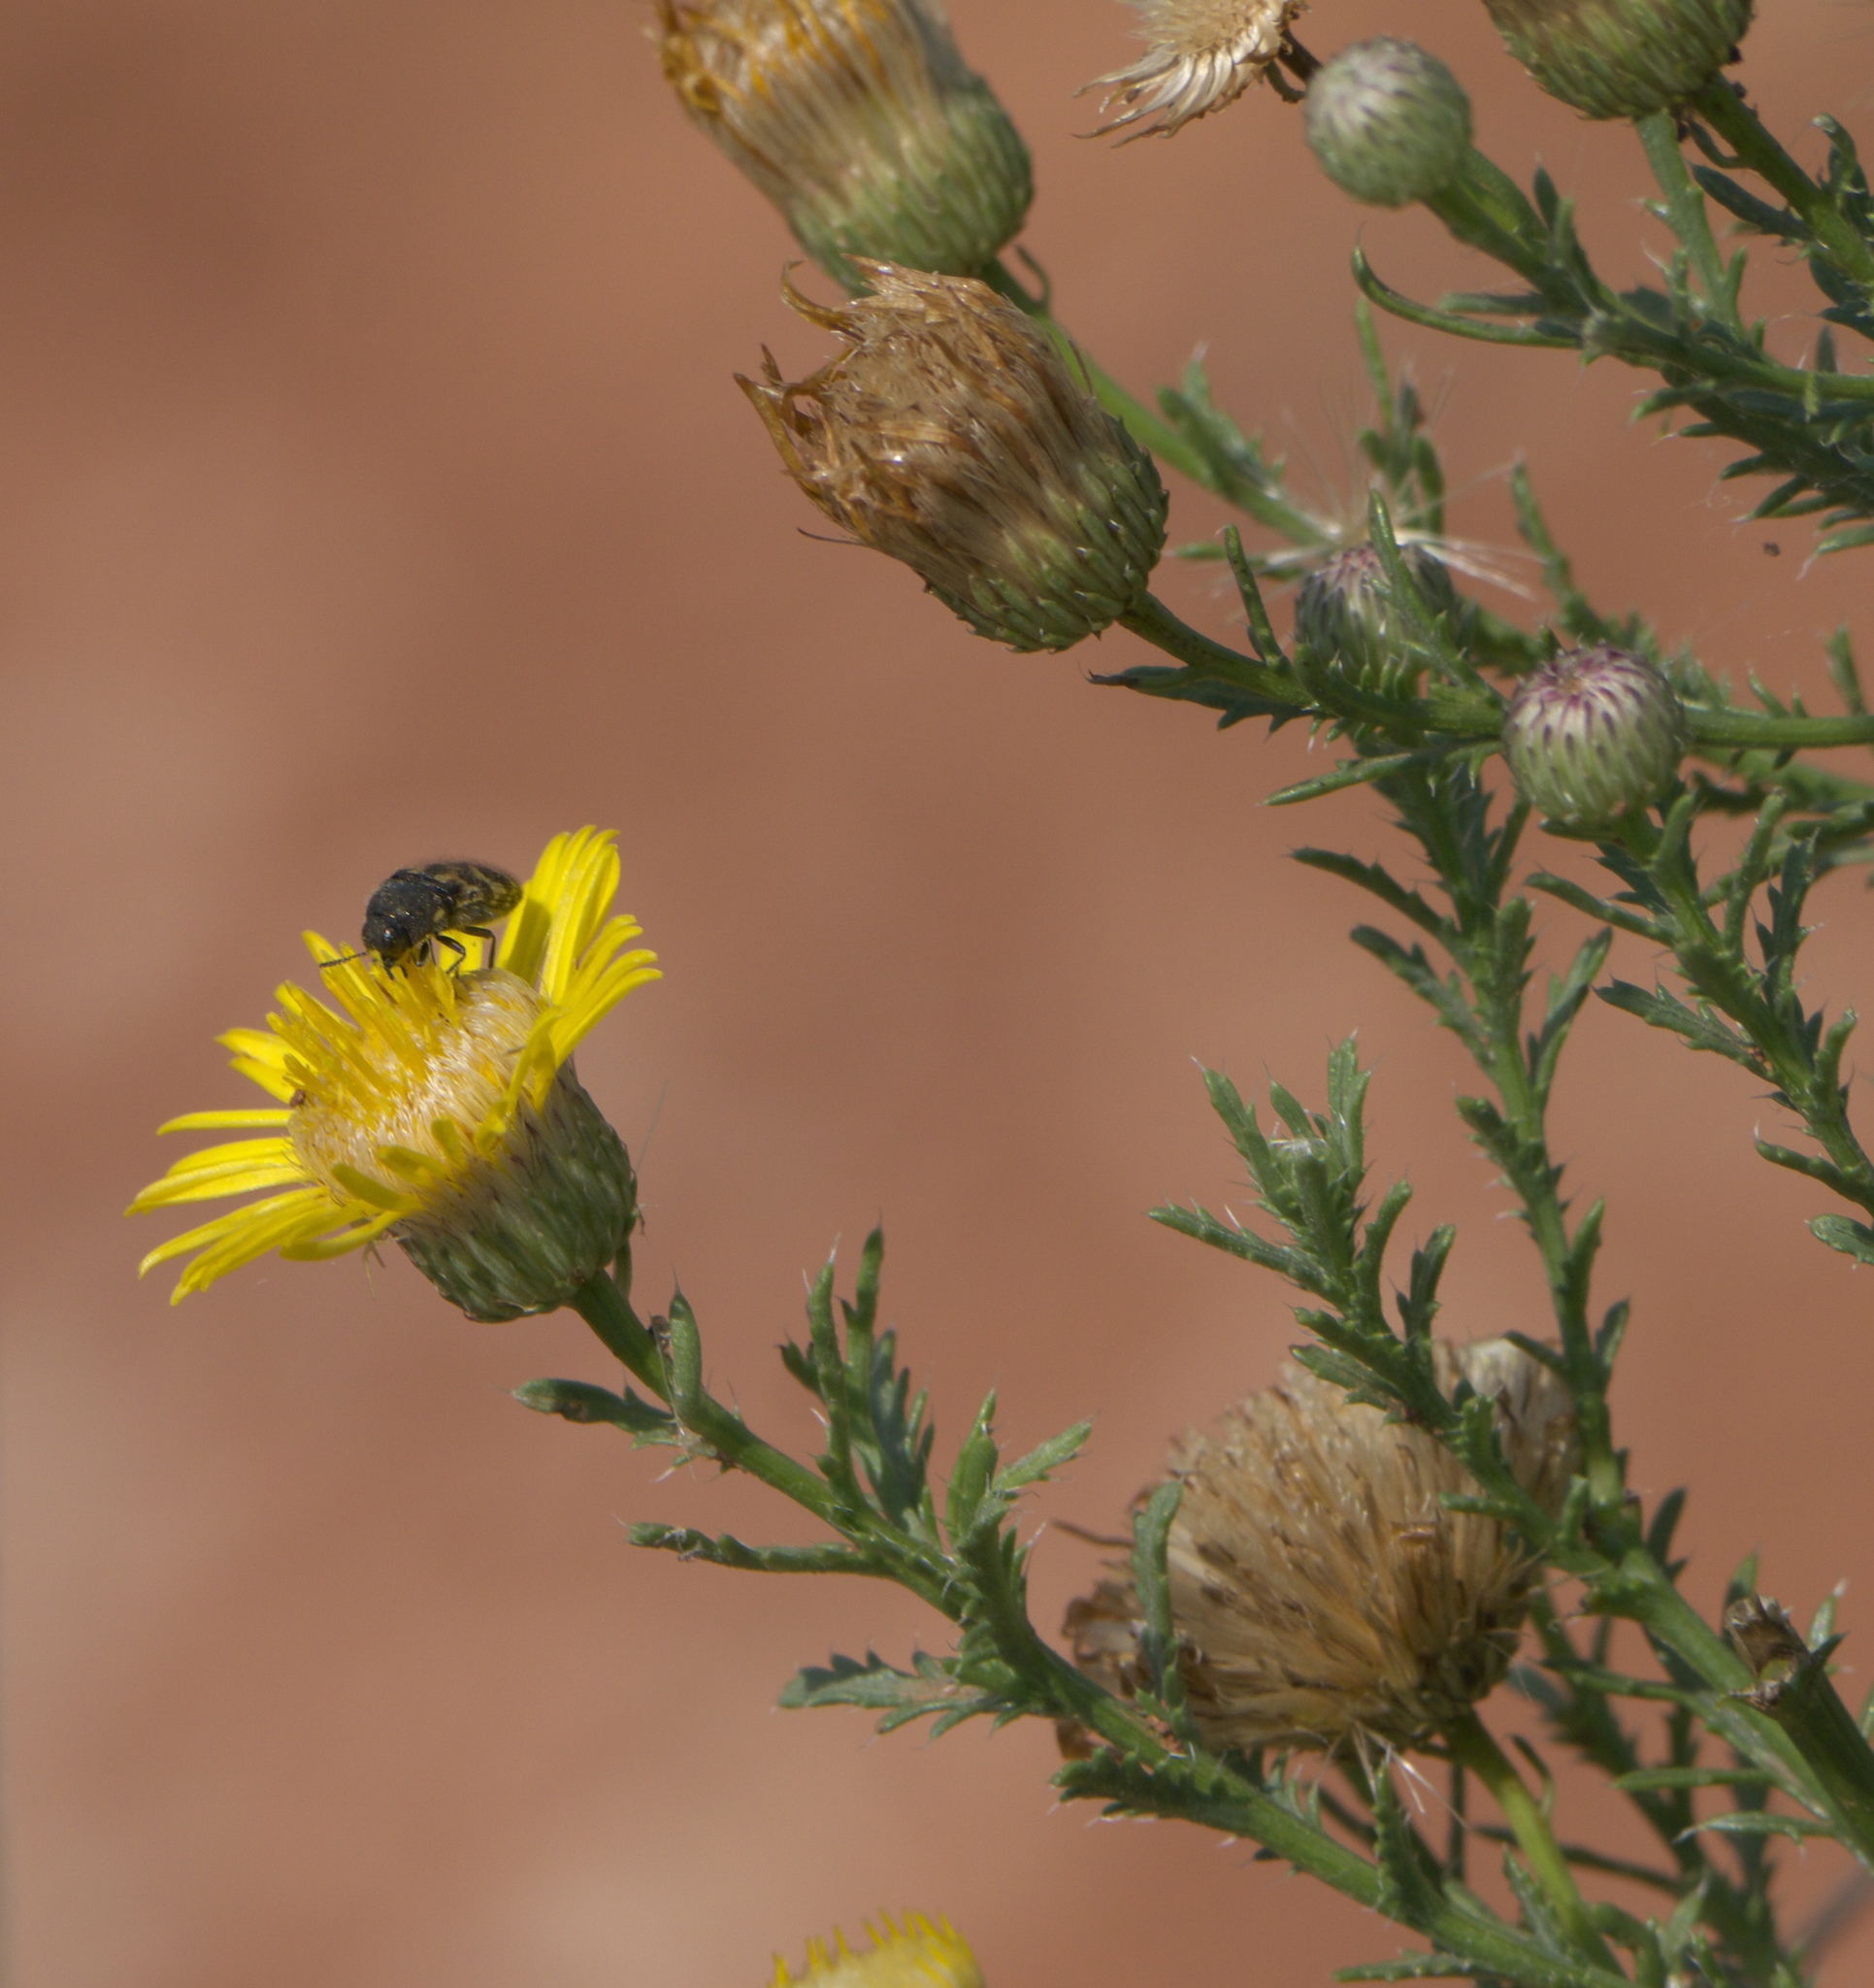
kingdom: Plantae
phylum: Tracheophyta
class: Magnoliopsida
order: Asterales
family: Asteraceae
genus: Xanthisma
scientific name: Xanthisma spinulosum
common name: Spiny goldenweed
